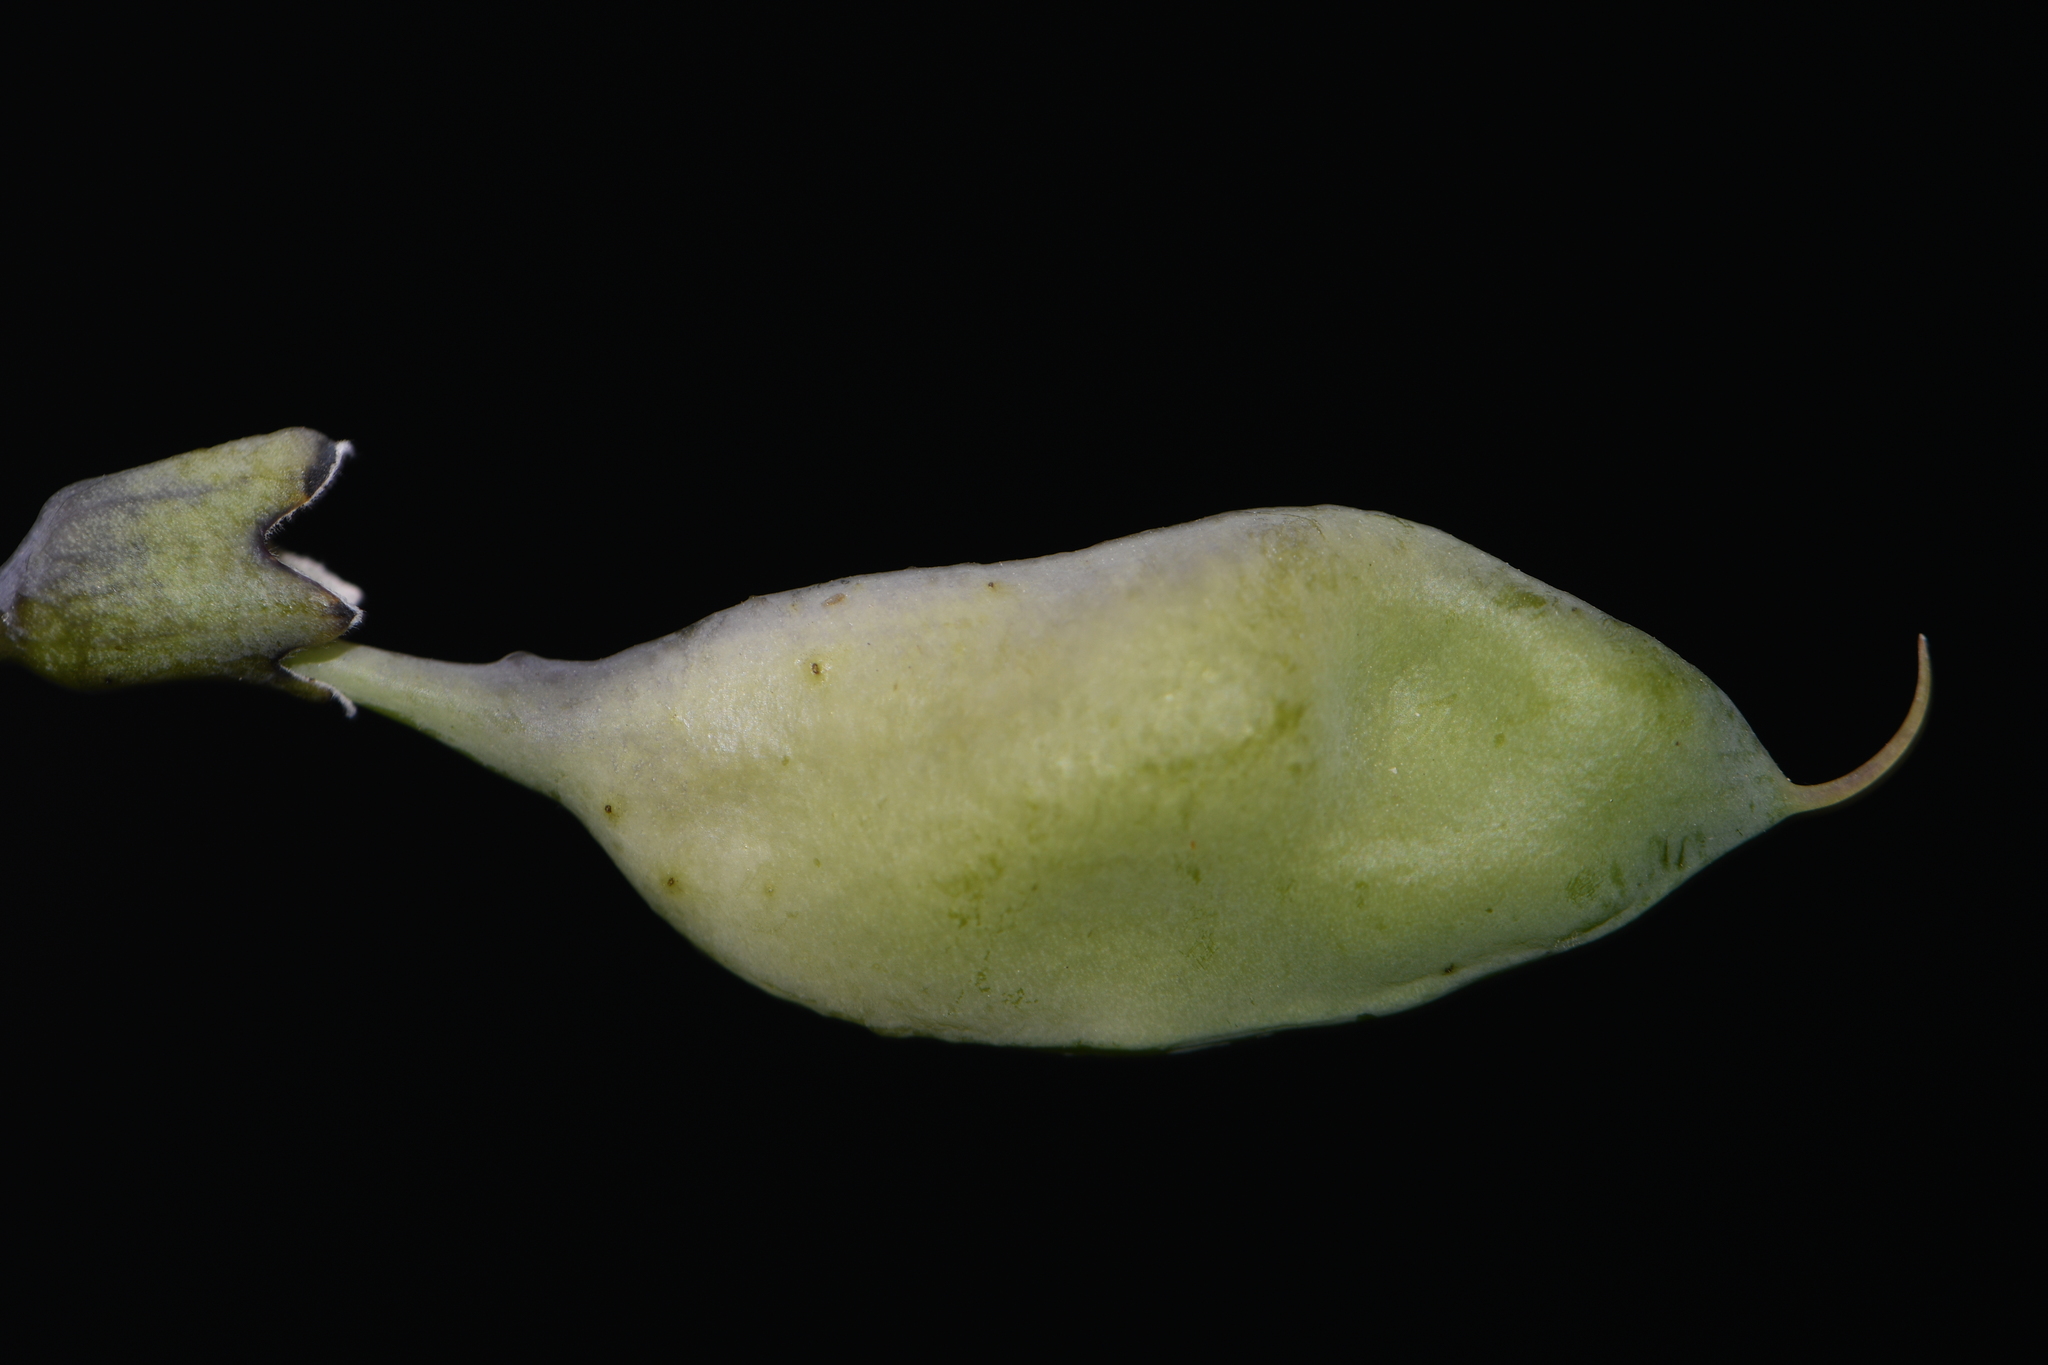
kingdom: Plantae
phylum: Tracheophyta
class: Magnoliopsida
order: Fabales
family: Fabaceae
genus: Baptisia
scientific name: Baptisia alba
